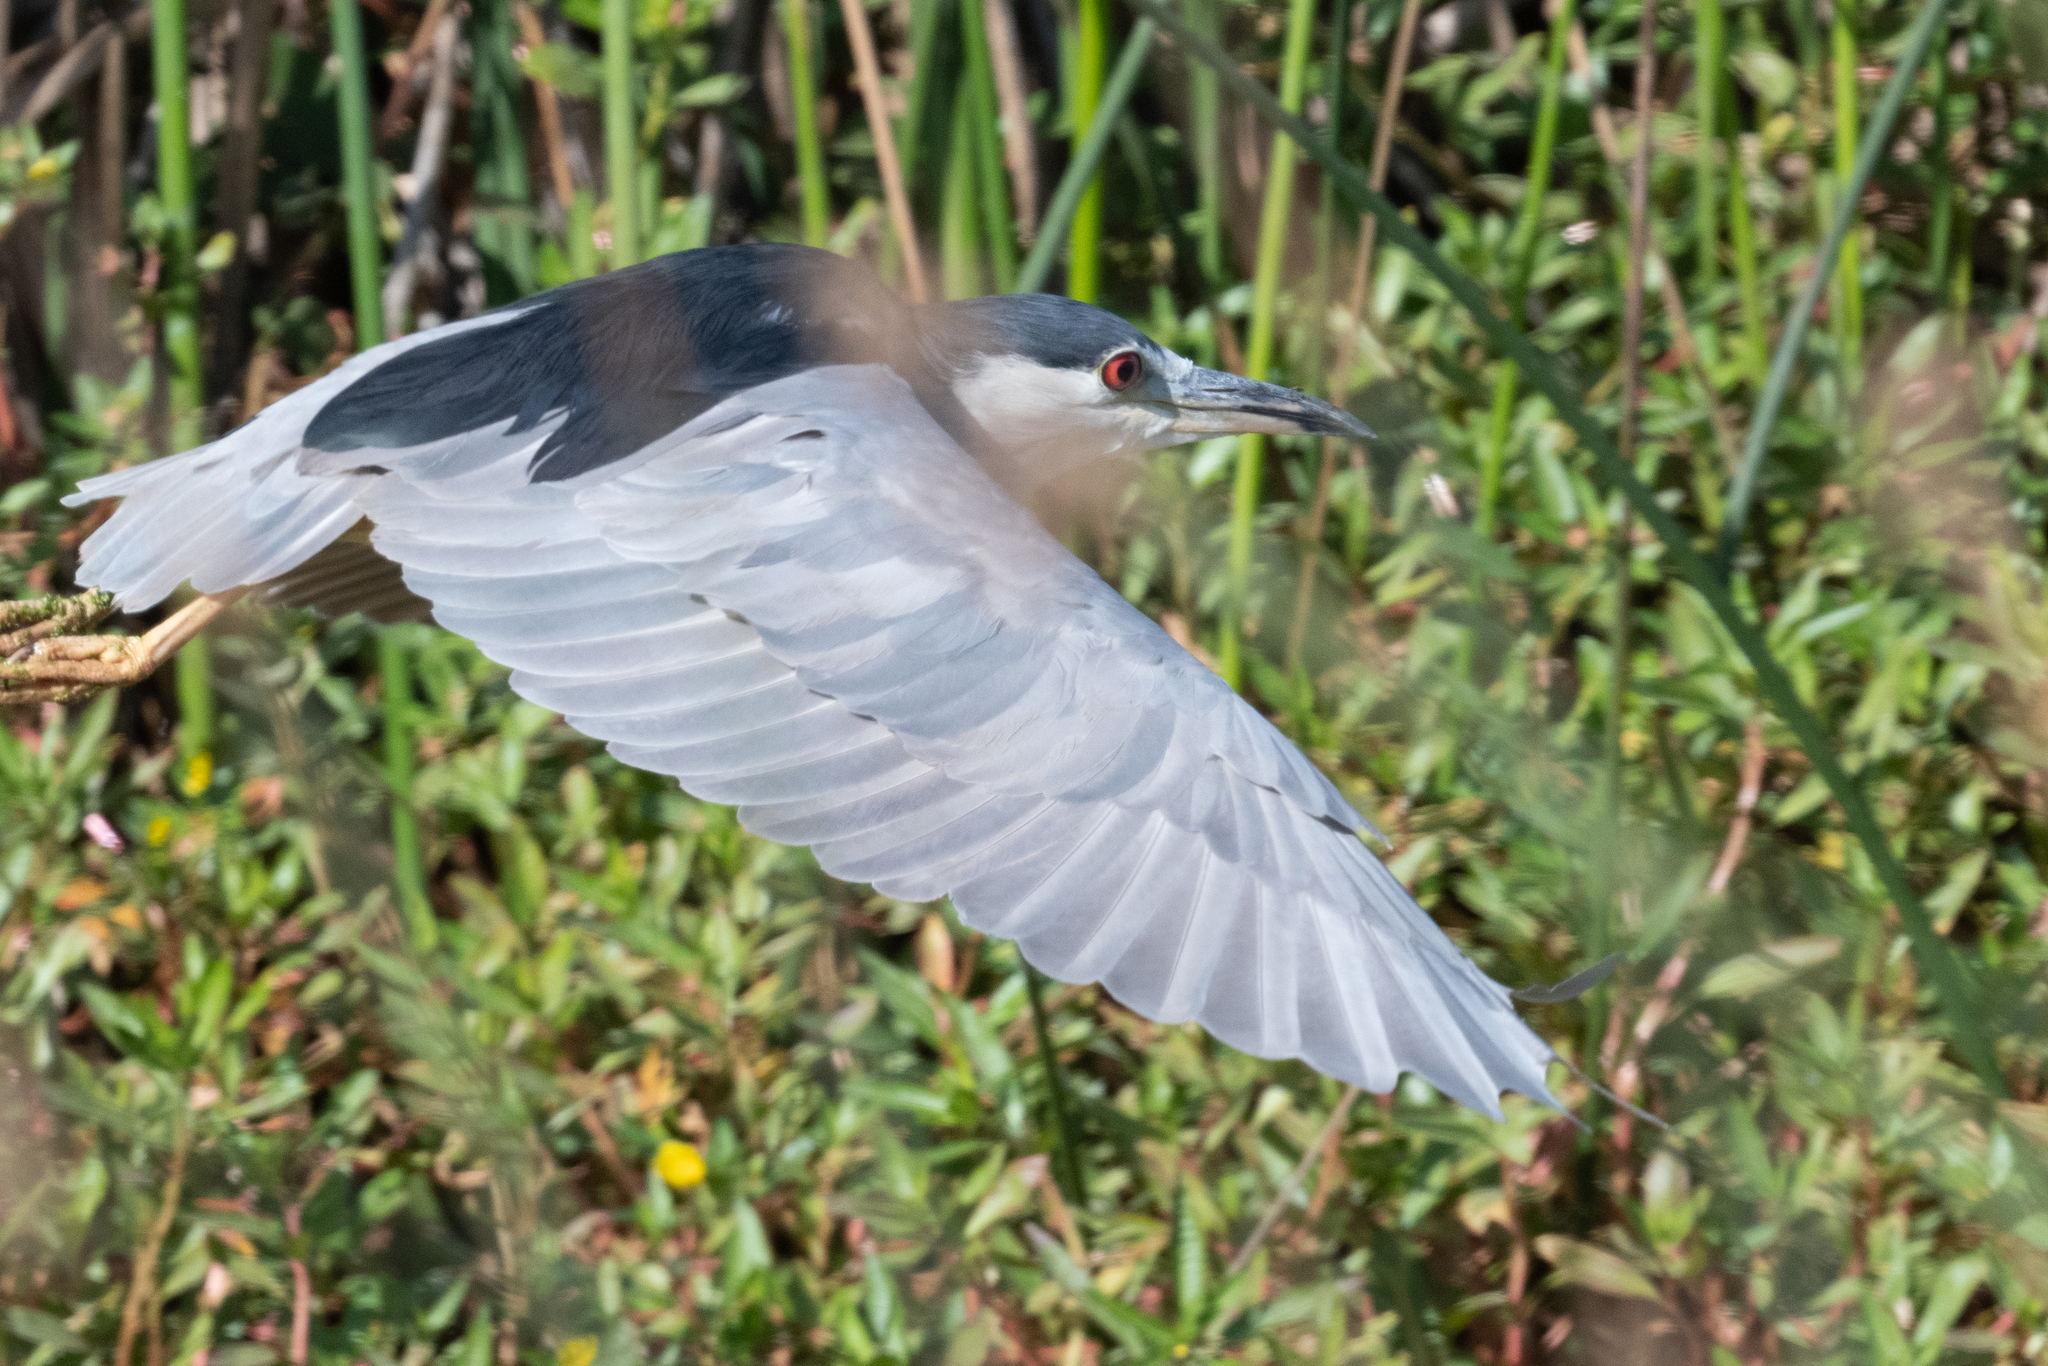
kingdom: Animalia
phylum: Chordata
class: Aves
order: Pelecaniformes
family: Ardeidae
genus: Nycticorax
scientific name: Nycticorax nycticorax
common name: Black-crowned night heron
